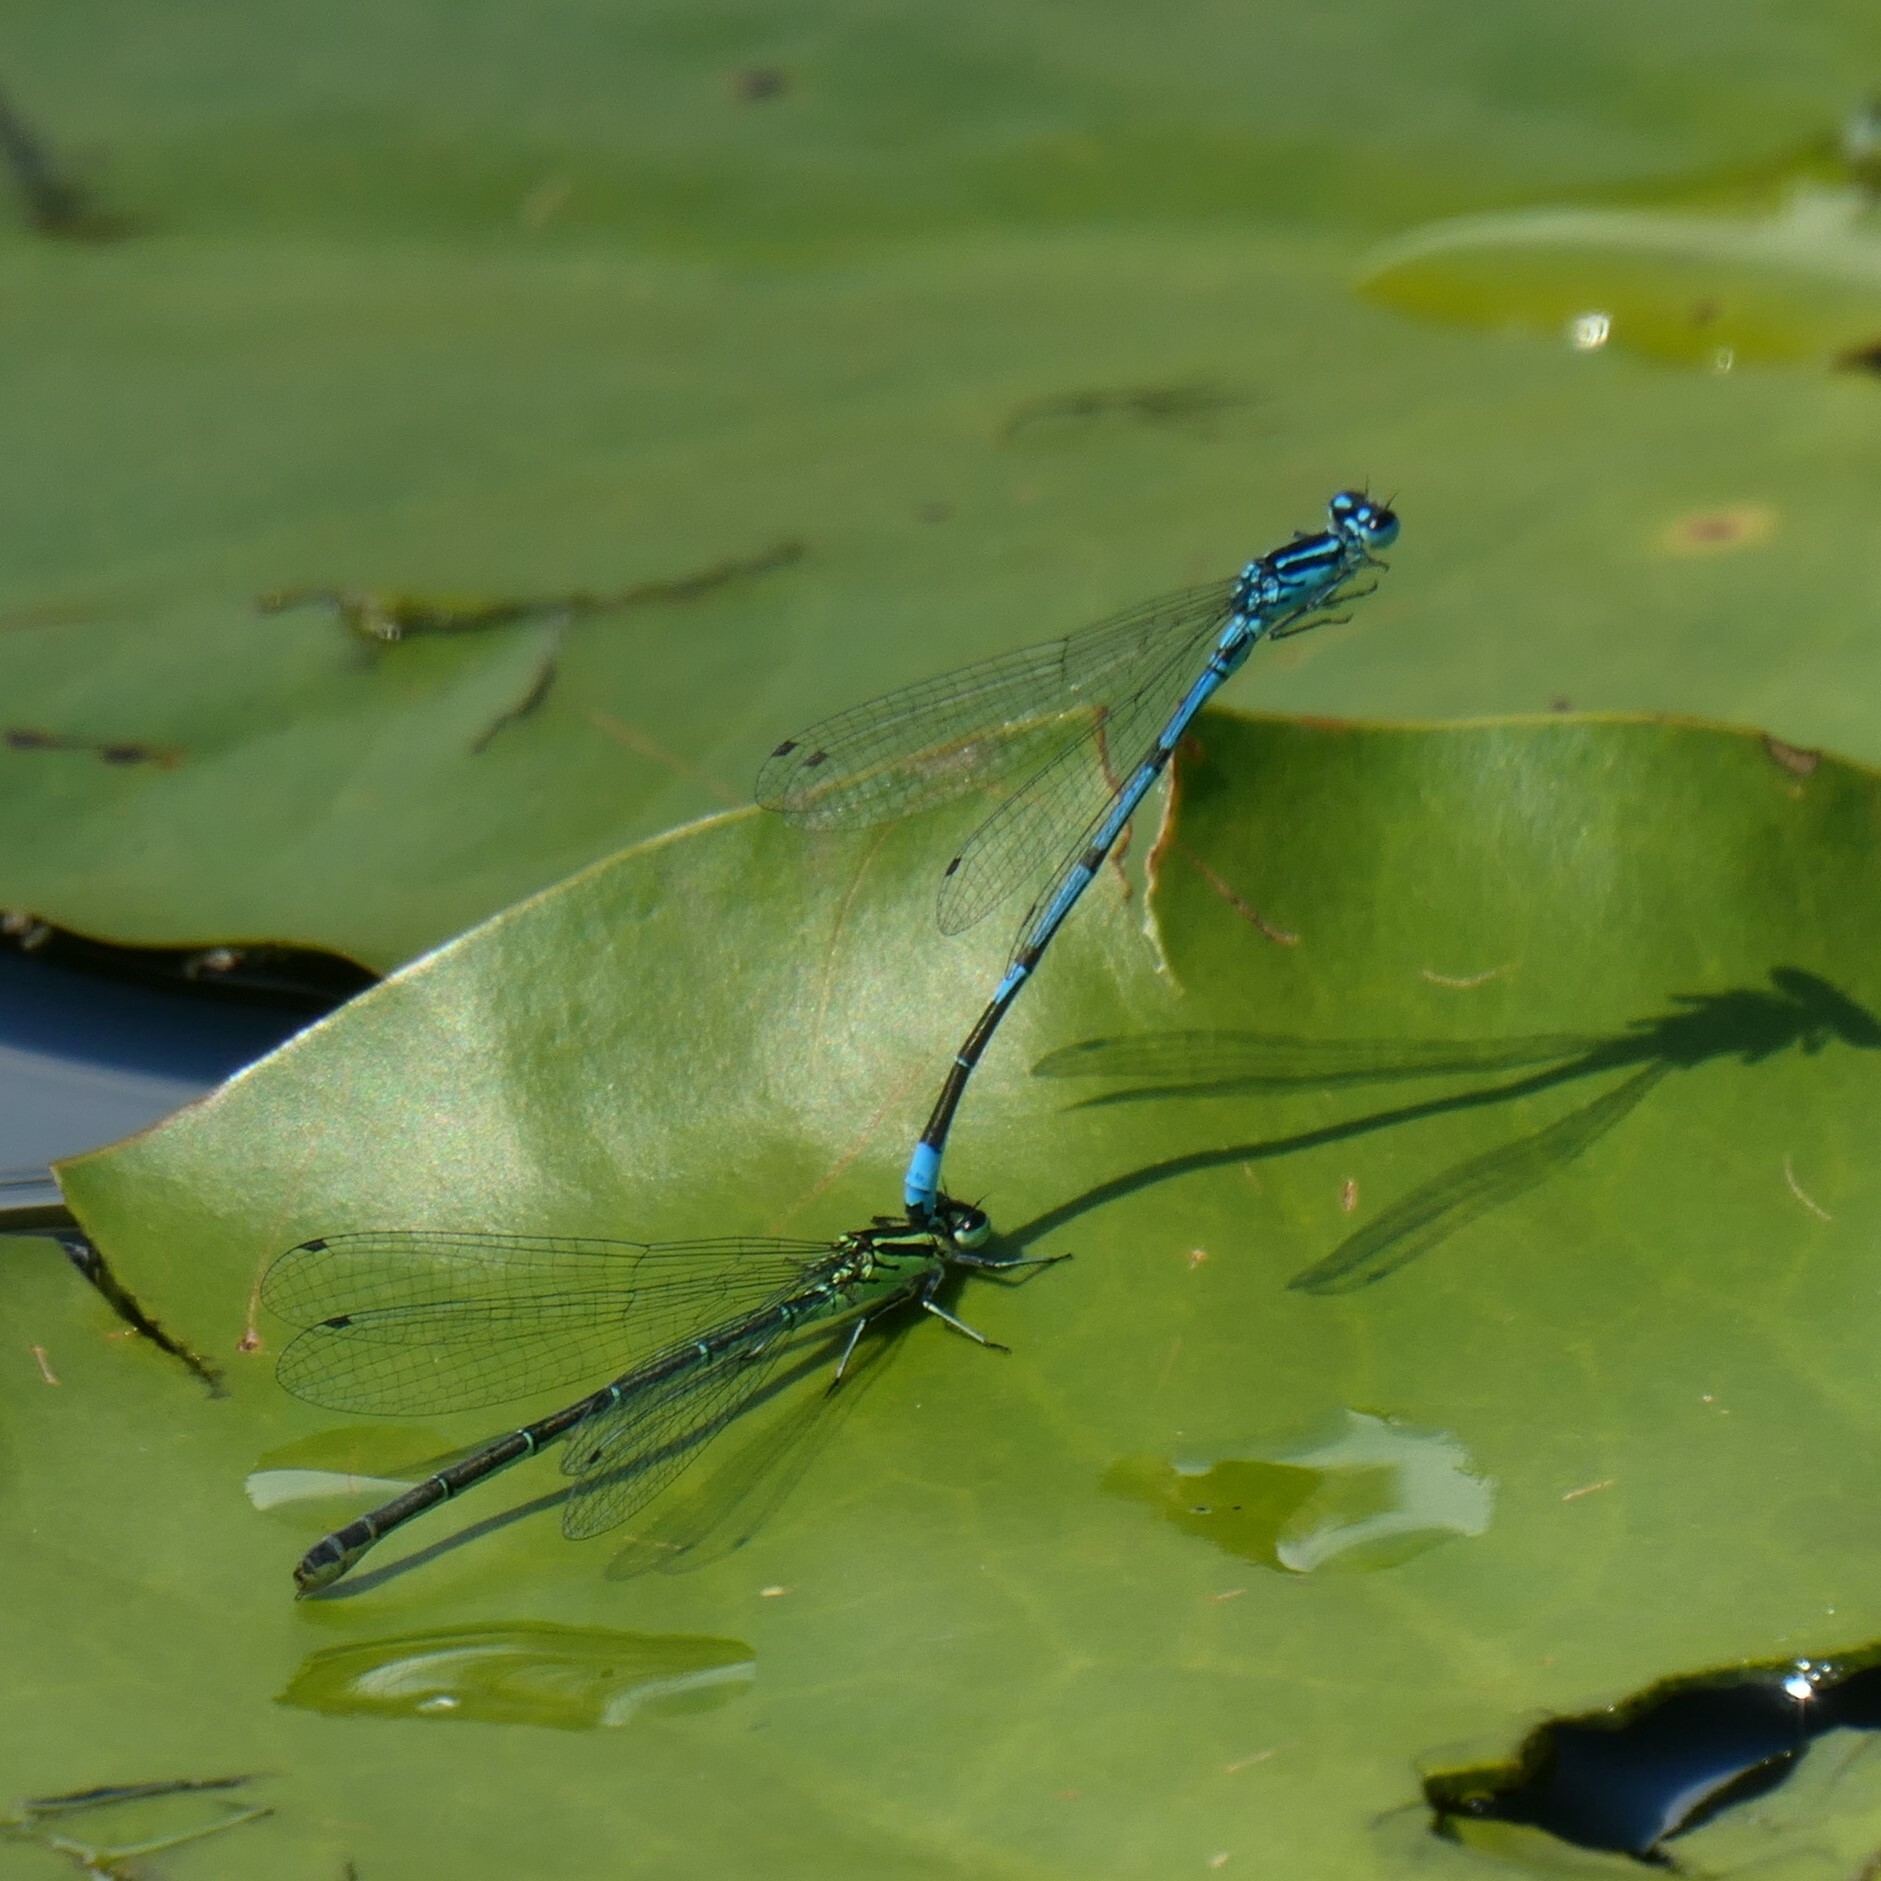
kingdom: Animalia
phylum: Arthropoda
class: Insecta
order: Odonata
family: Coenagrionidae
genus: Coenagrion
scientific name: Coenagrion puella
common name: Azure damselfly
